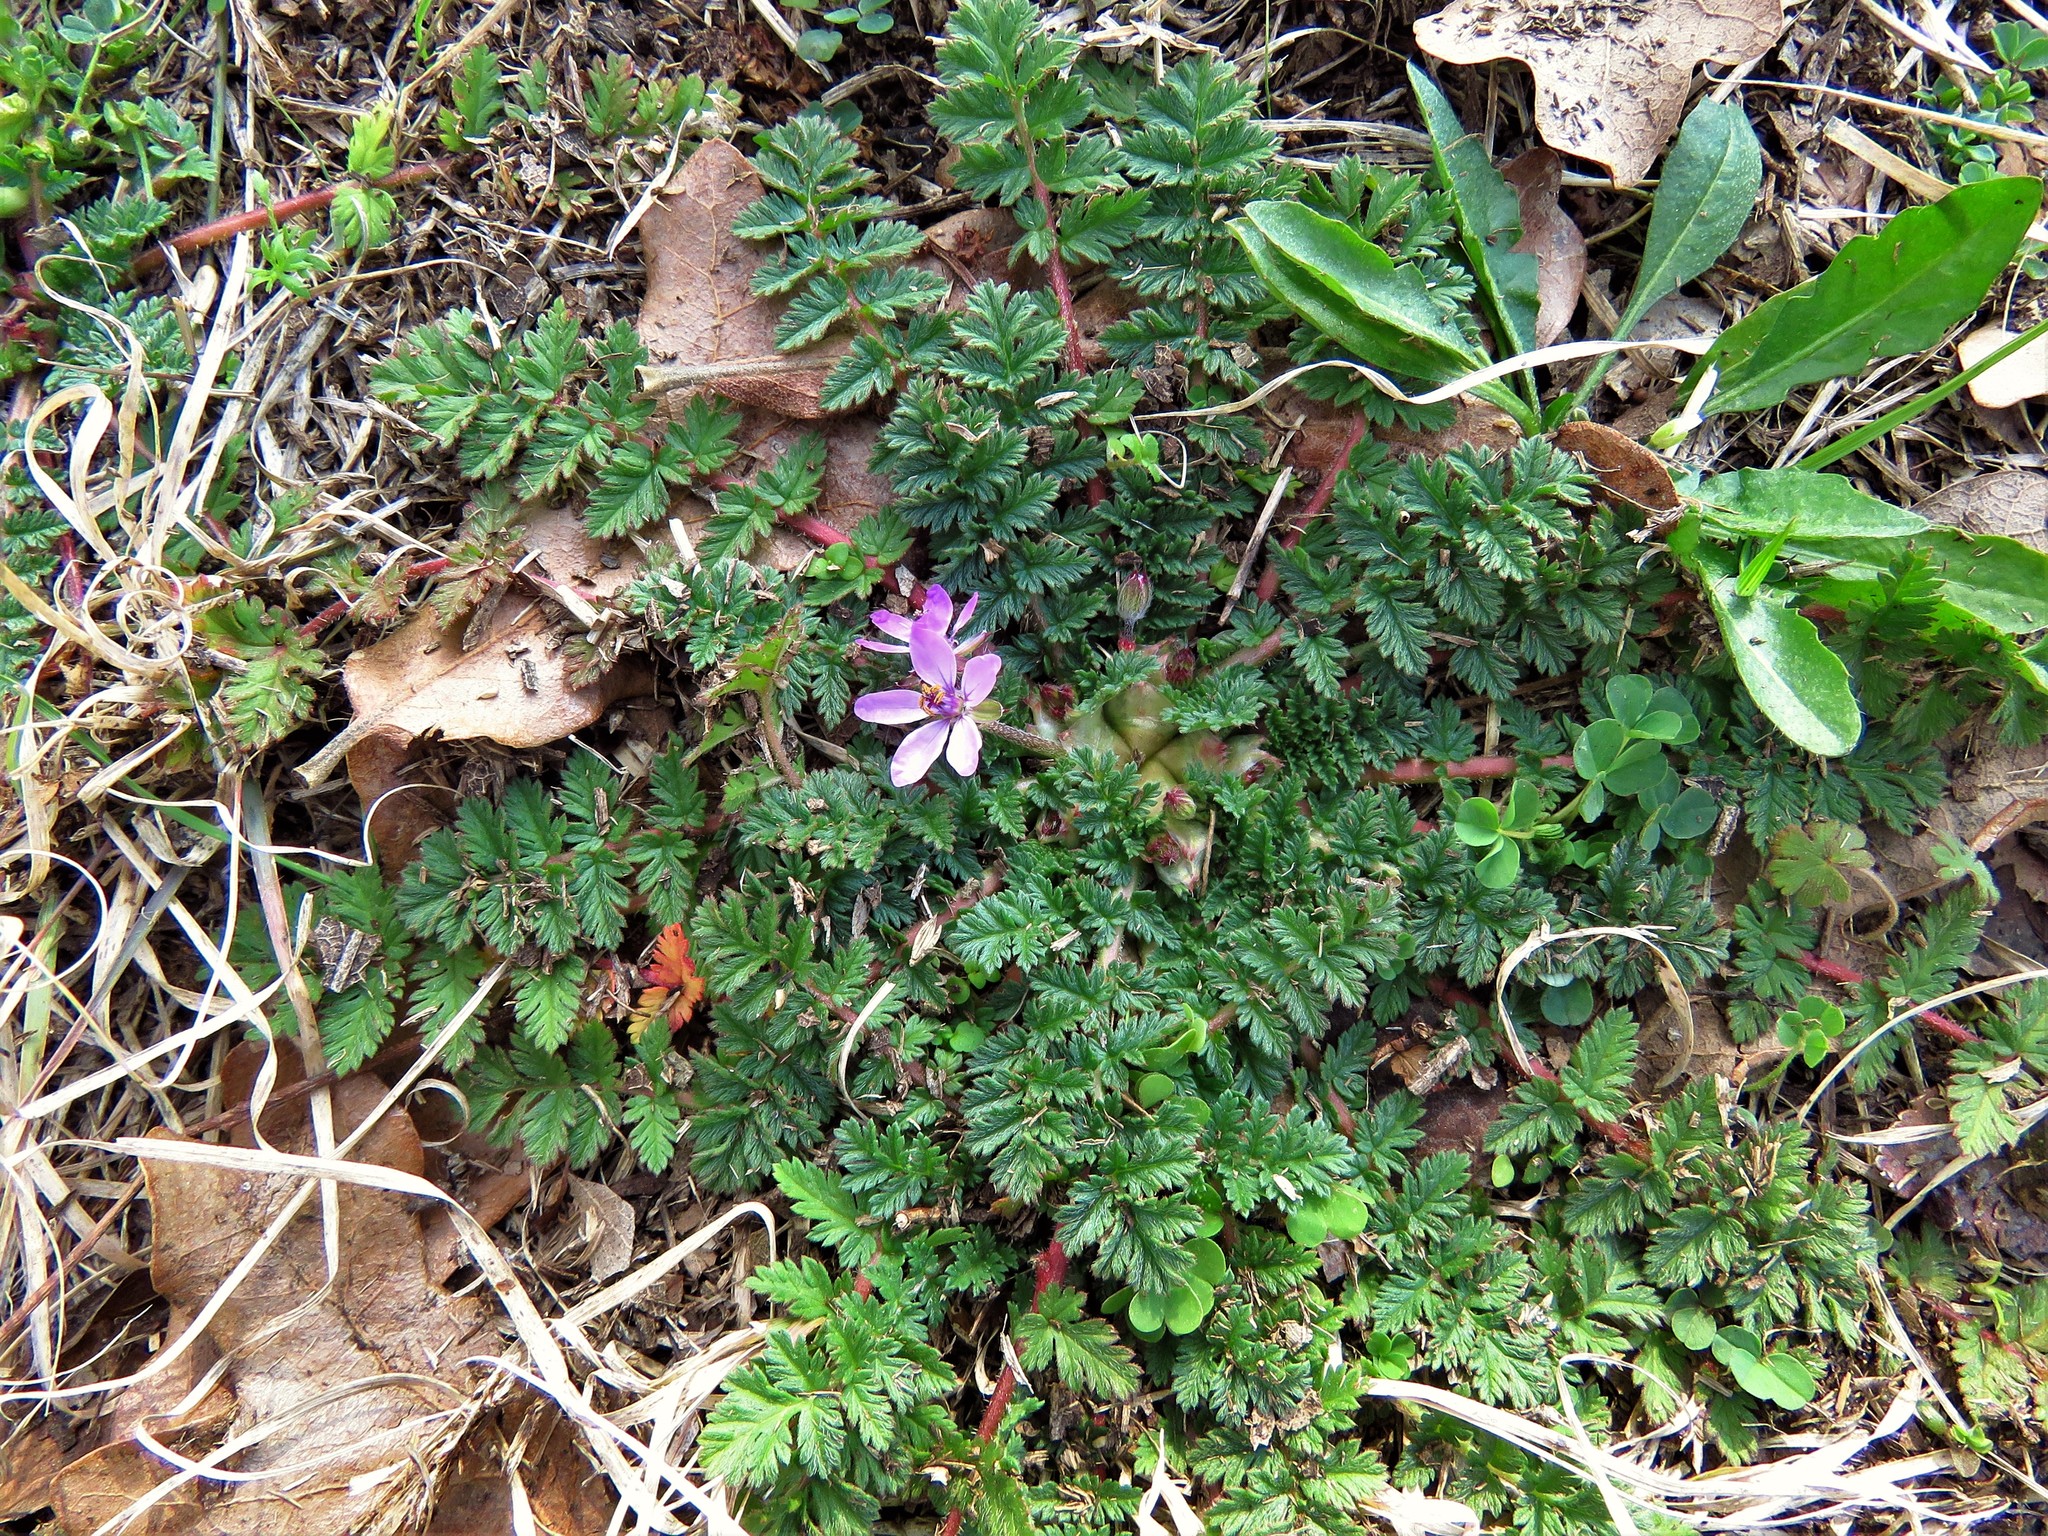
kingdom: Plantae
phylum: Tracheophyta
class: Magnoliopsida
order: Geraniales
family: Geraniaceae
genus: Erodium
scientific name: Erodium cicutarium
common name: Common stork's-bill
